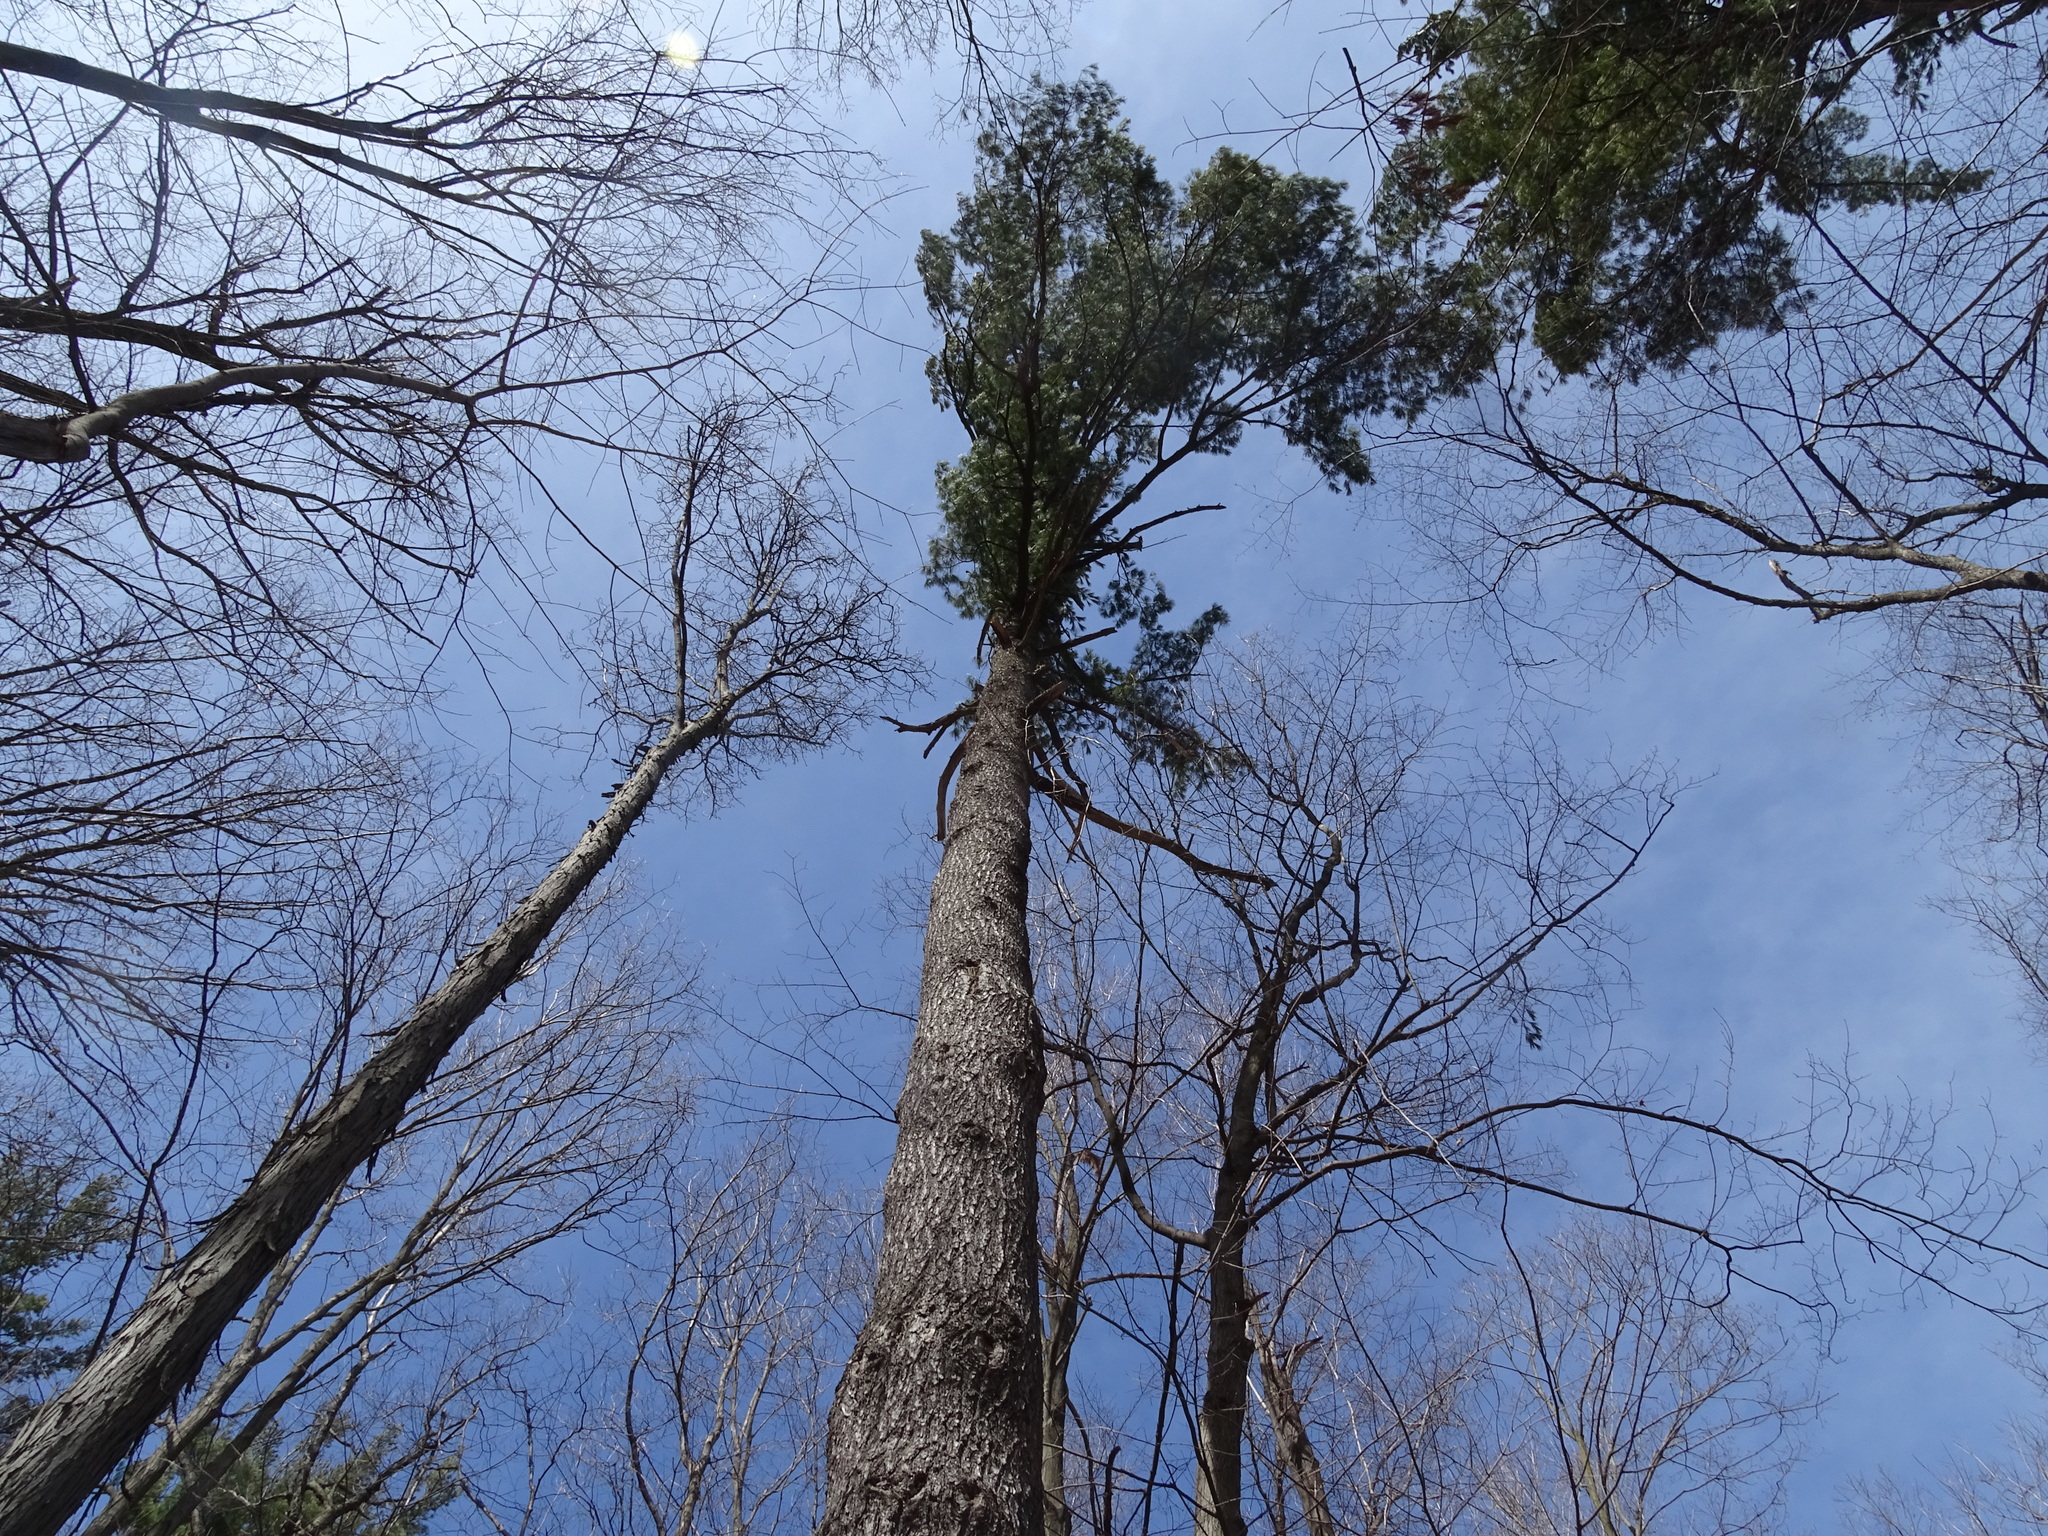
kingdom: Plantae
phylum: Tracheophyta
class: Pinopsida
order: Pinales
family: Pinaceae
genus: Pinus
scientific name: Pinus strobus
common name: Weymouth pine
